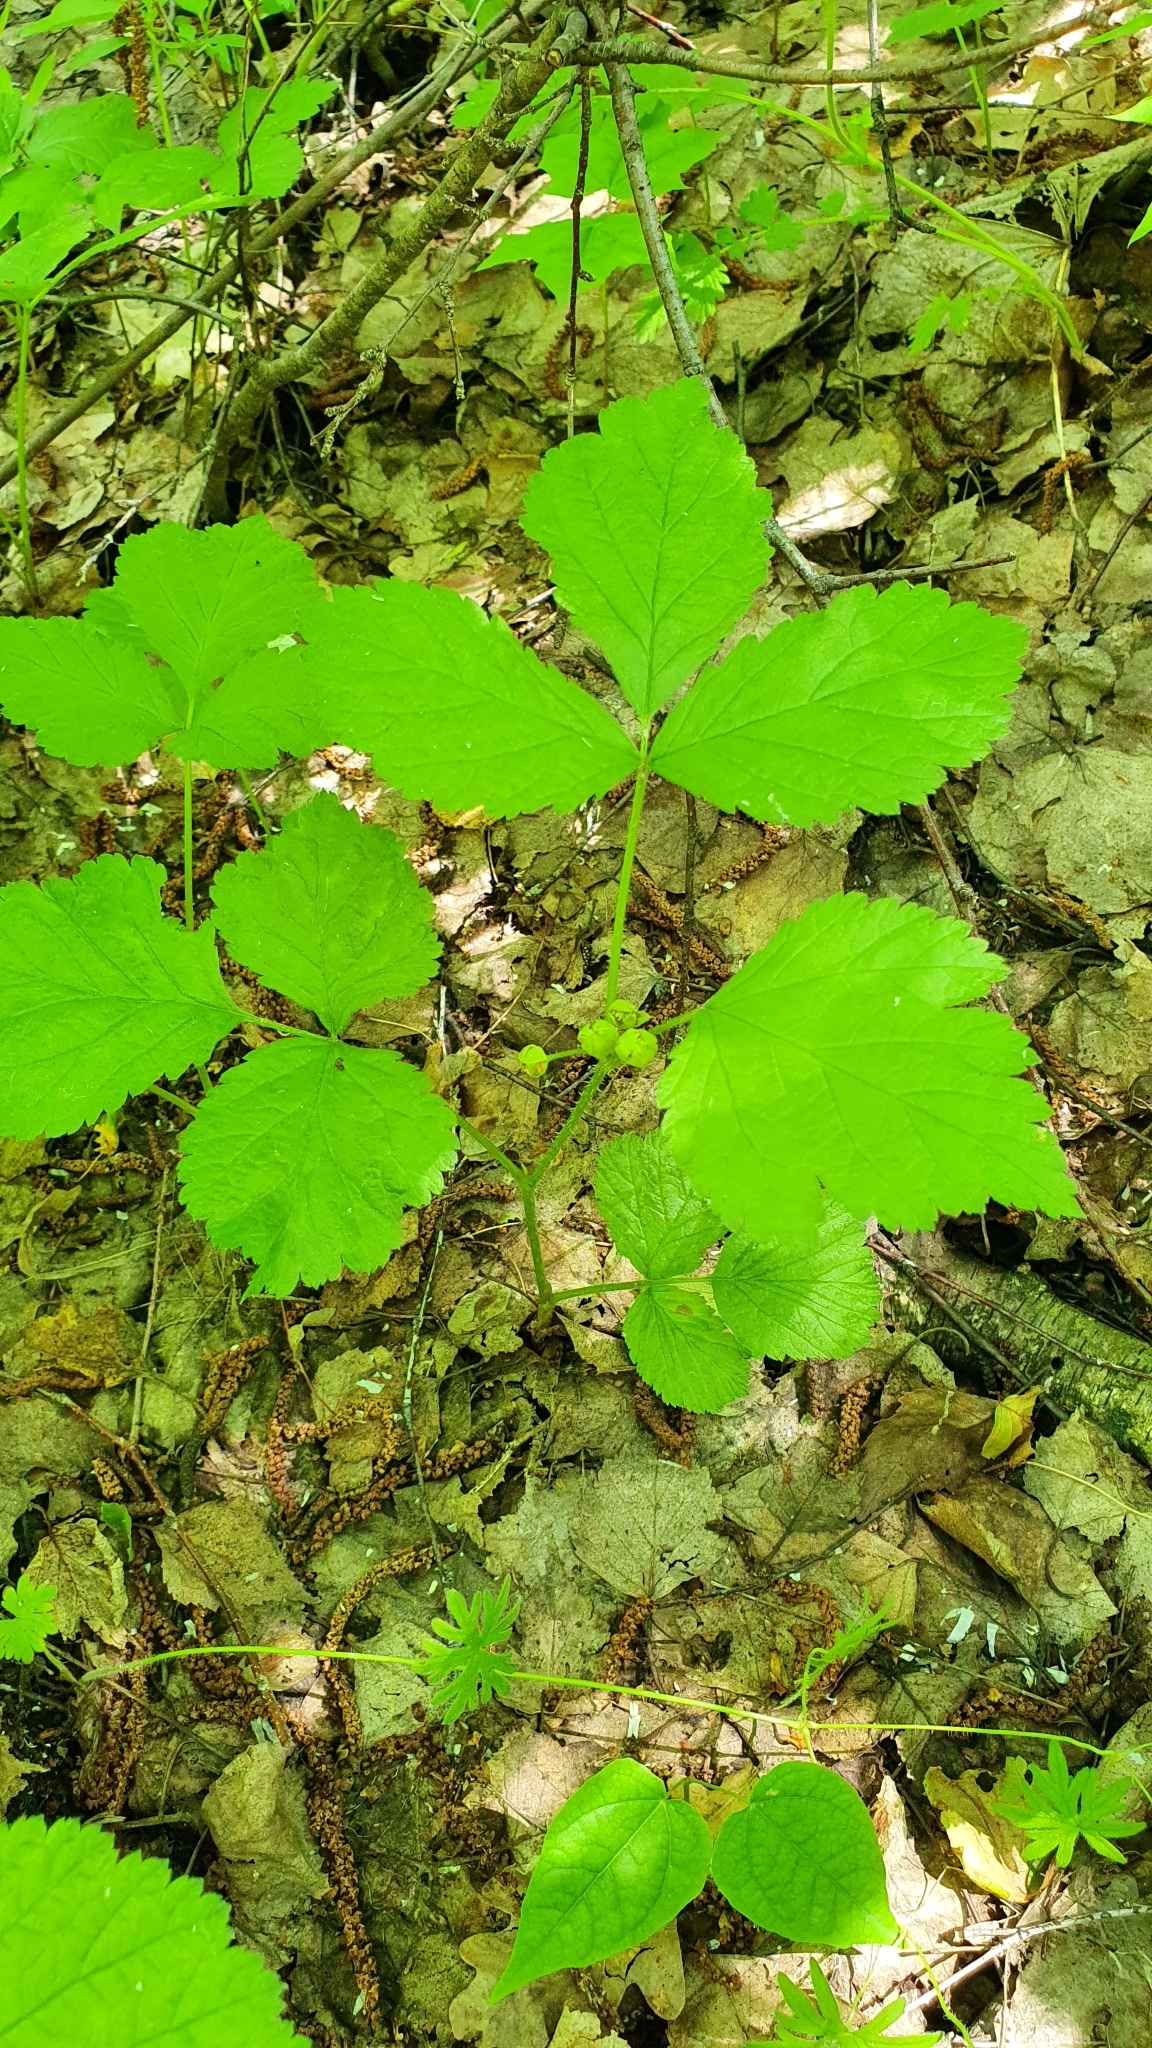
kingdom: Plantae
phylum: Tracheophyta
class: Magnoliopsida
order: Rosales
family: Rosaceae
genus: Rubus
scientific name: Rubus saxatilis
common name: Stone bramble
